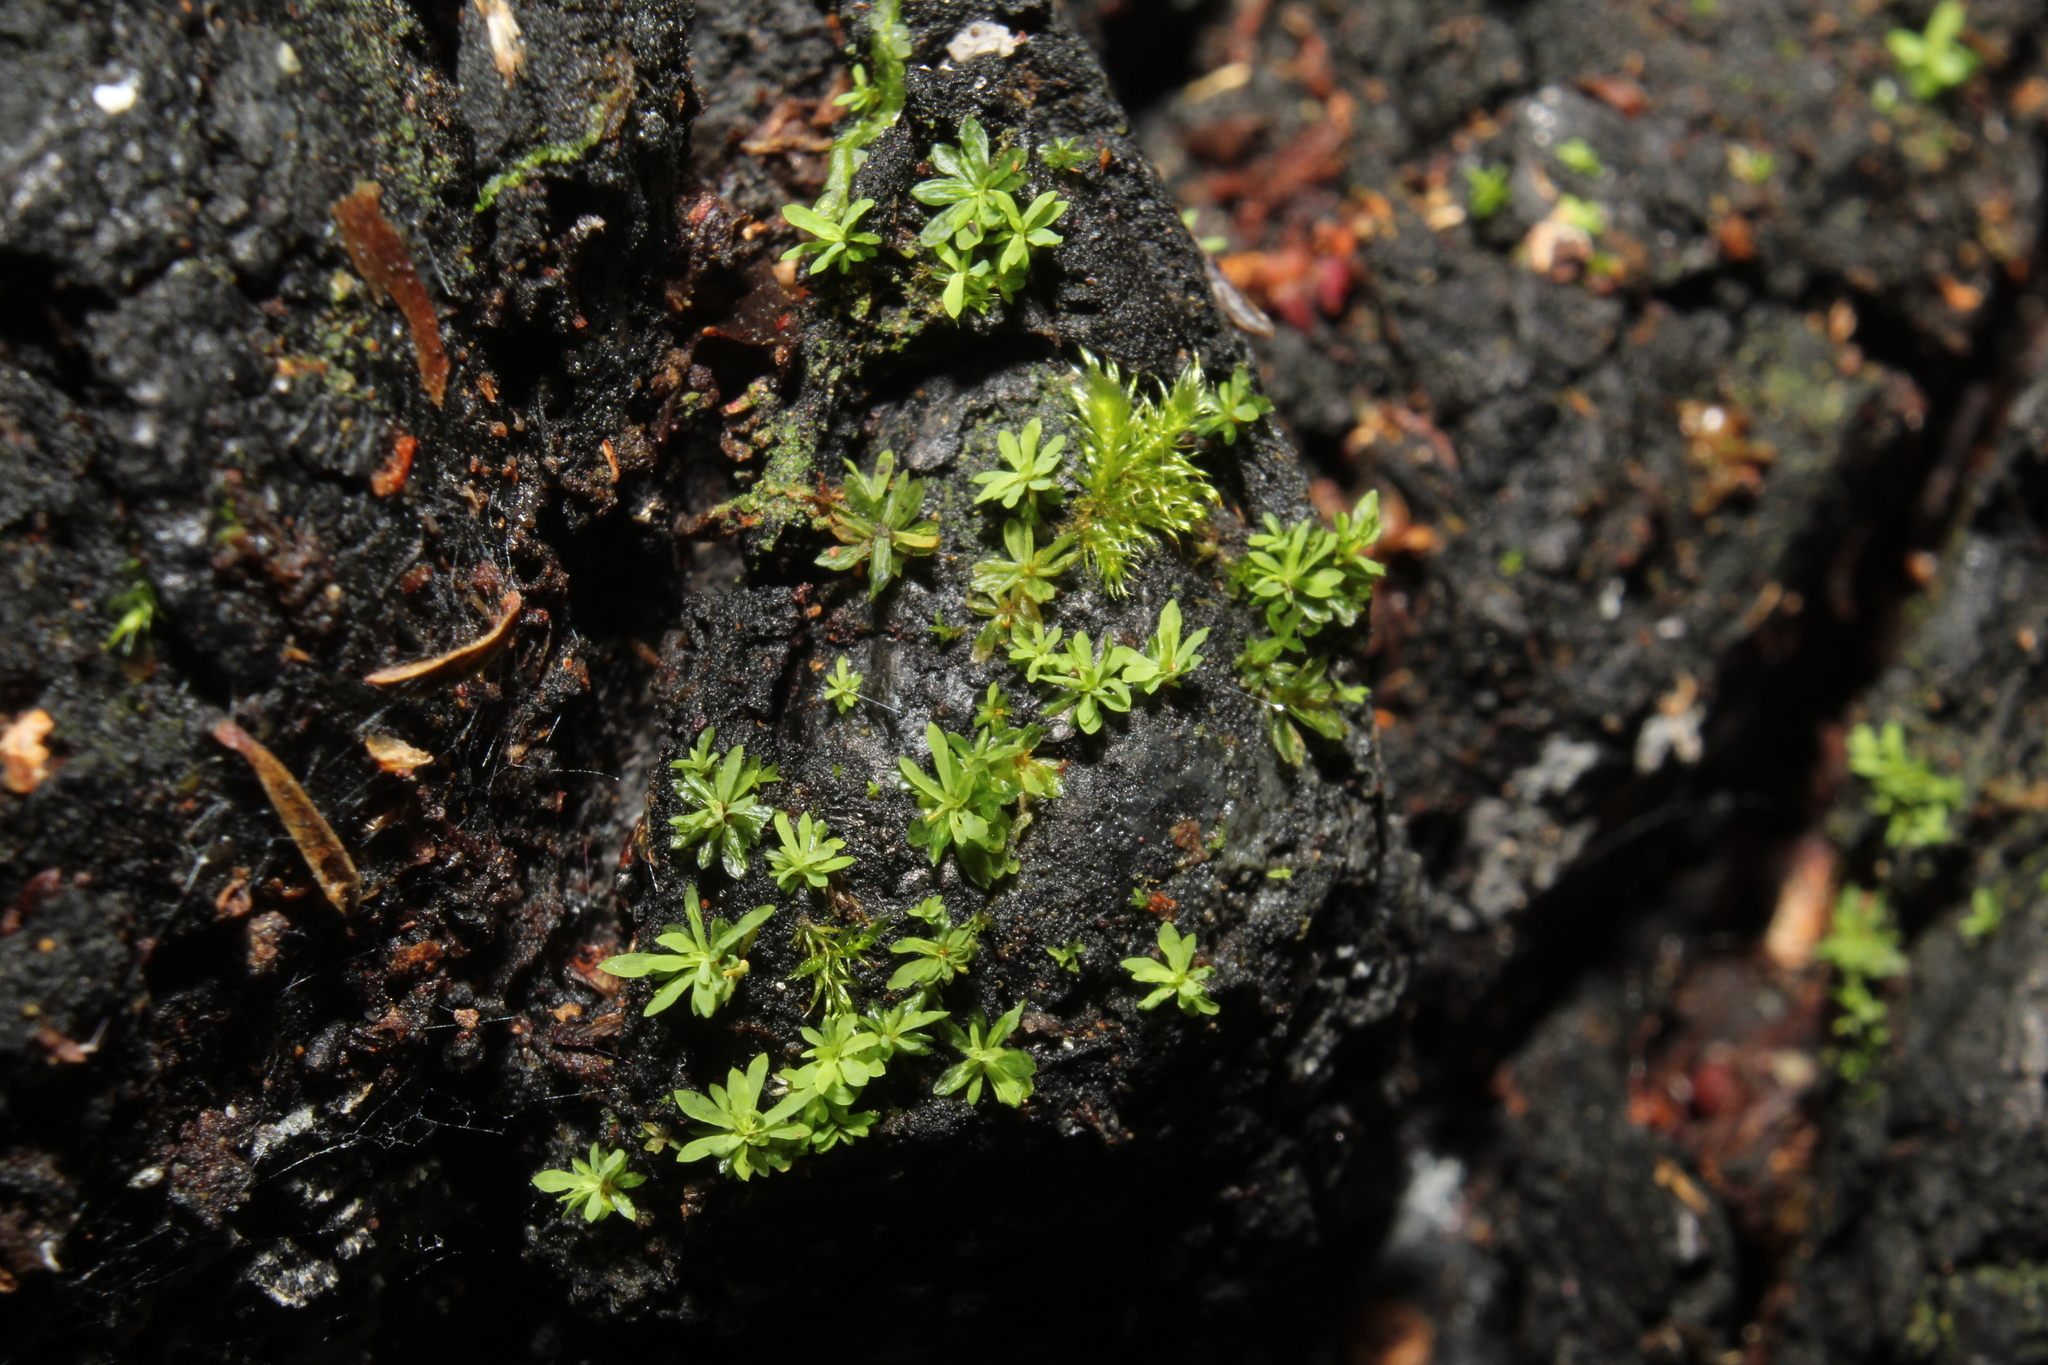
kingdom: Plantae
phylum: Bryophyta
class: Bryopsida
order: Pottiales
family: Pottiaceae
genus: Calymperastrum
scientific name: Calymperastrum latifolium
